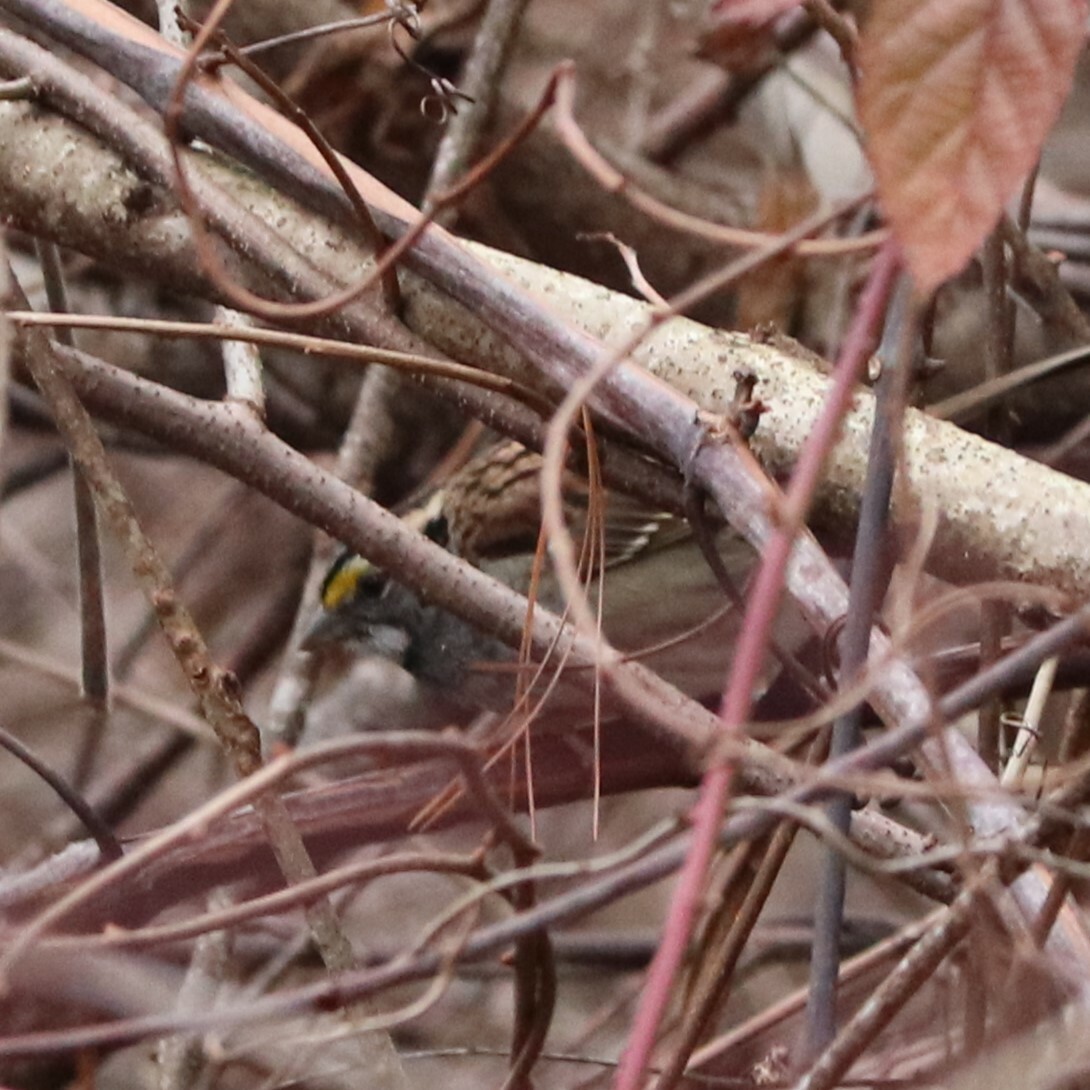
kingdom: Animalia
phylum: Chordata
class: Aves
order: Passeriformes
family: Passerellidae
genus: Zonotrichia
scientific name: Zonotrichia albicollis
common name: White-throated sparrow
